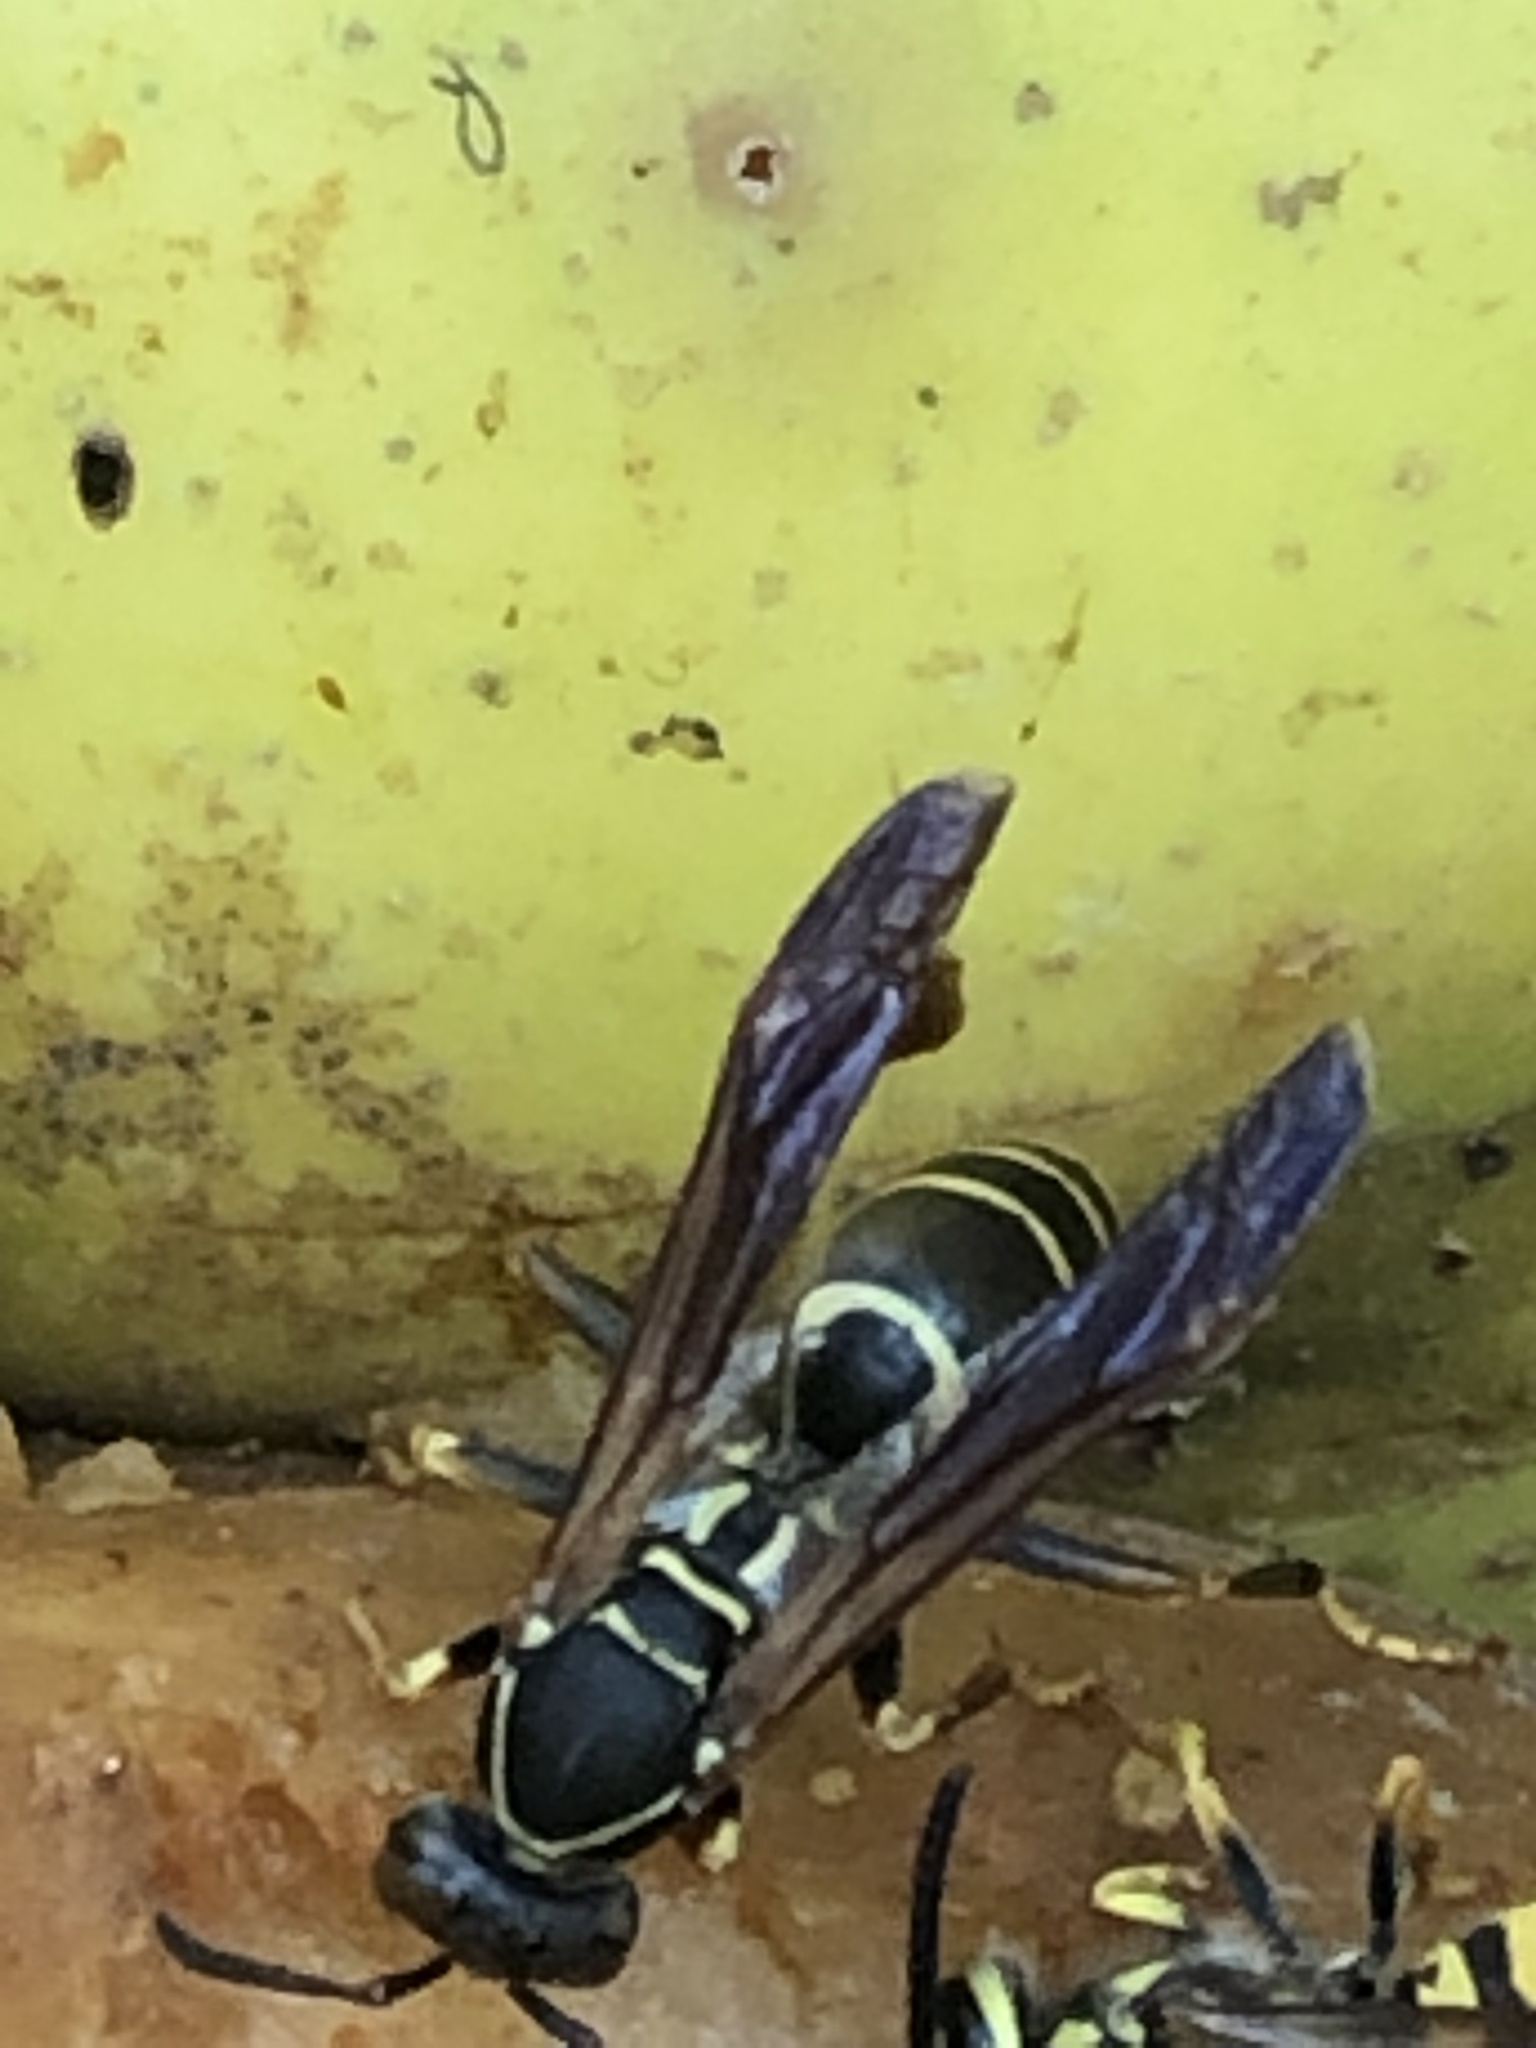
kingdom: Animalia
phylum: Arthropoda
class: Insecta
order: Hymenoptera
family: Eumenidae
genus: Polistes
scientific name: Polistes fuscatus
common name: Dark paper wasp
